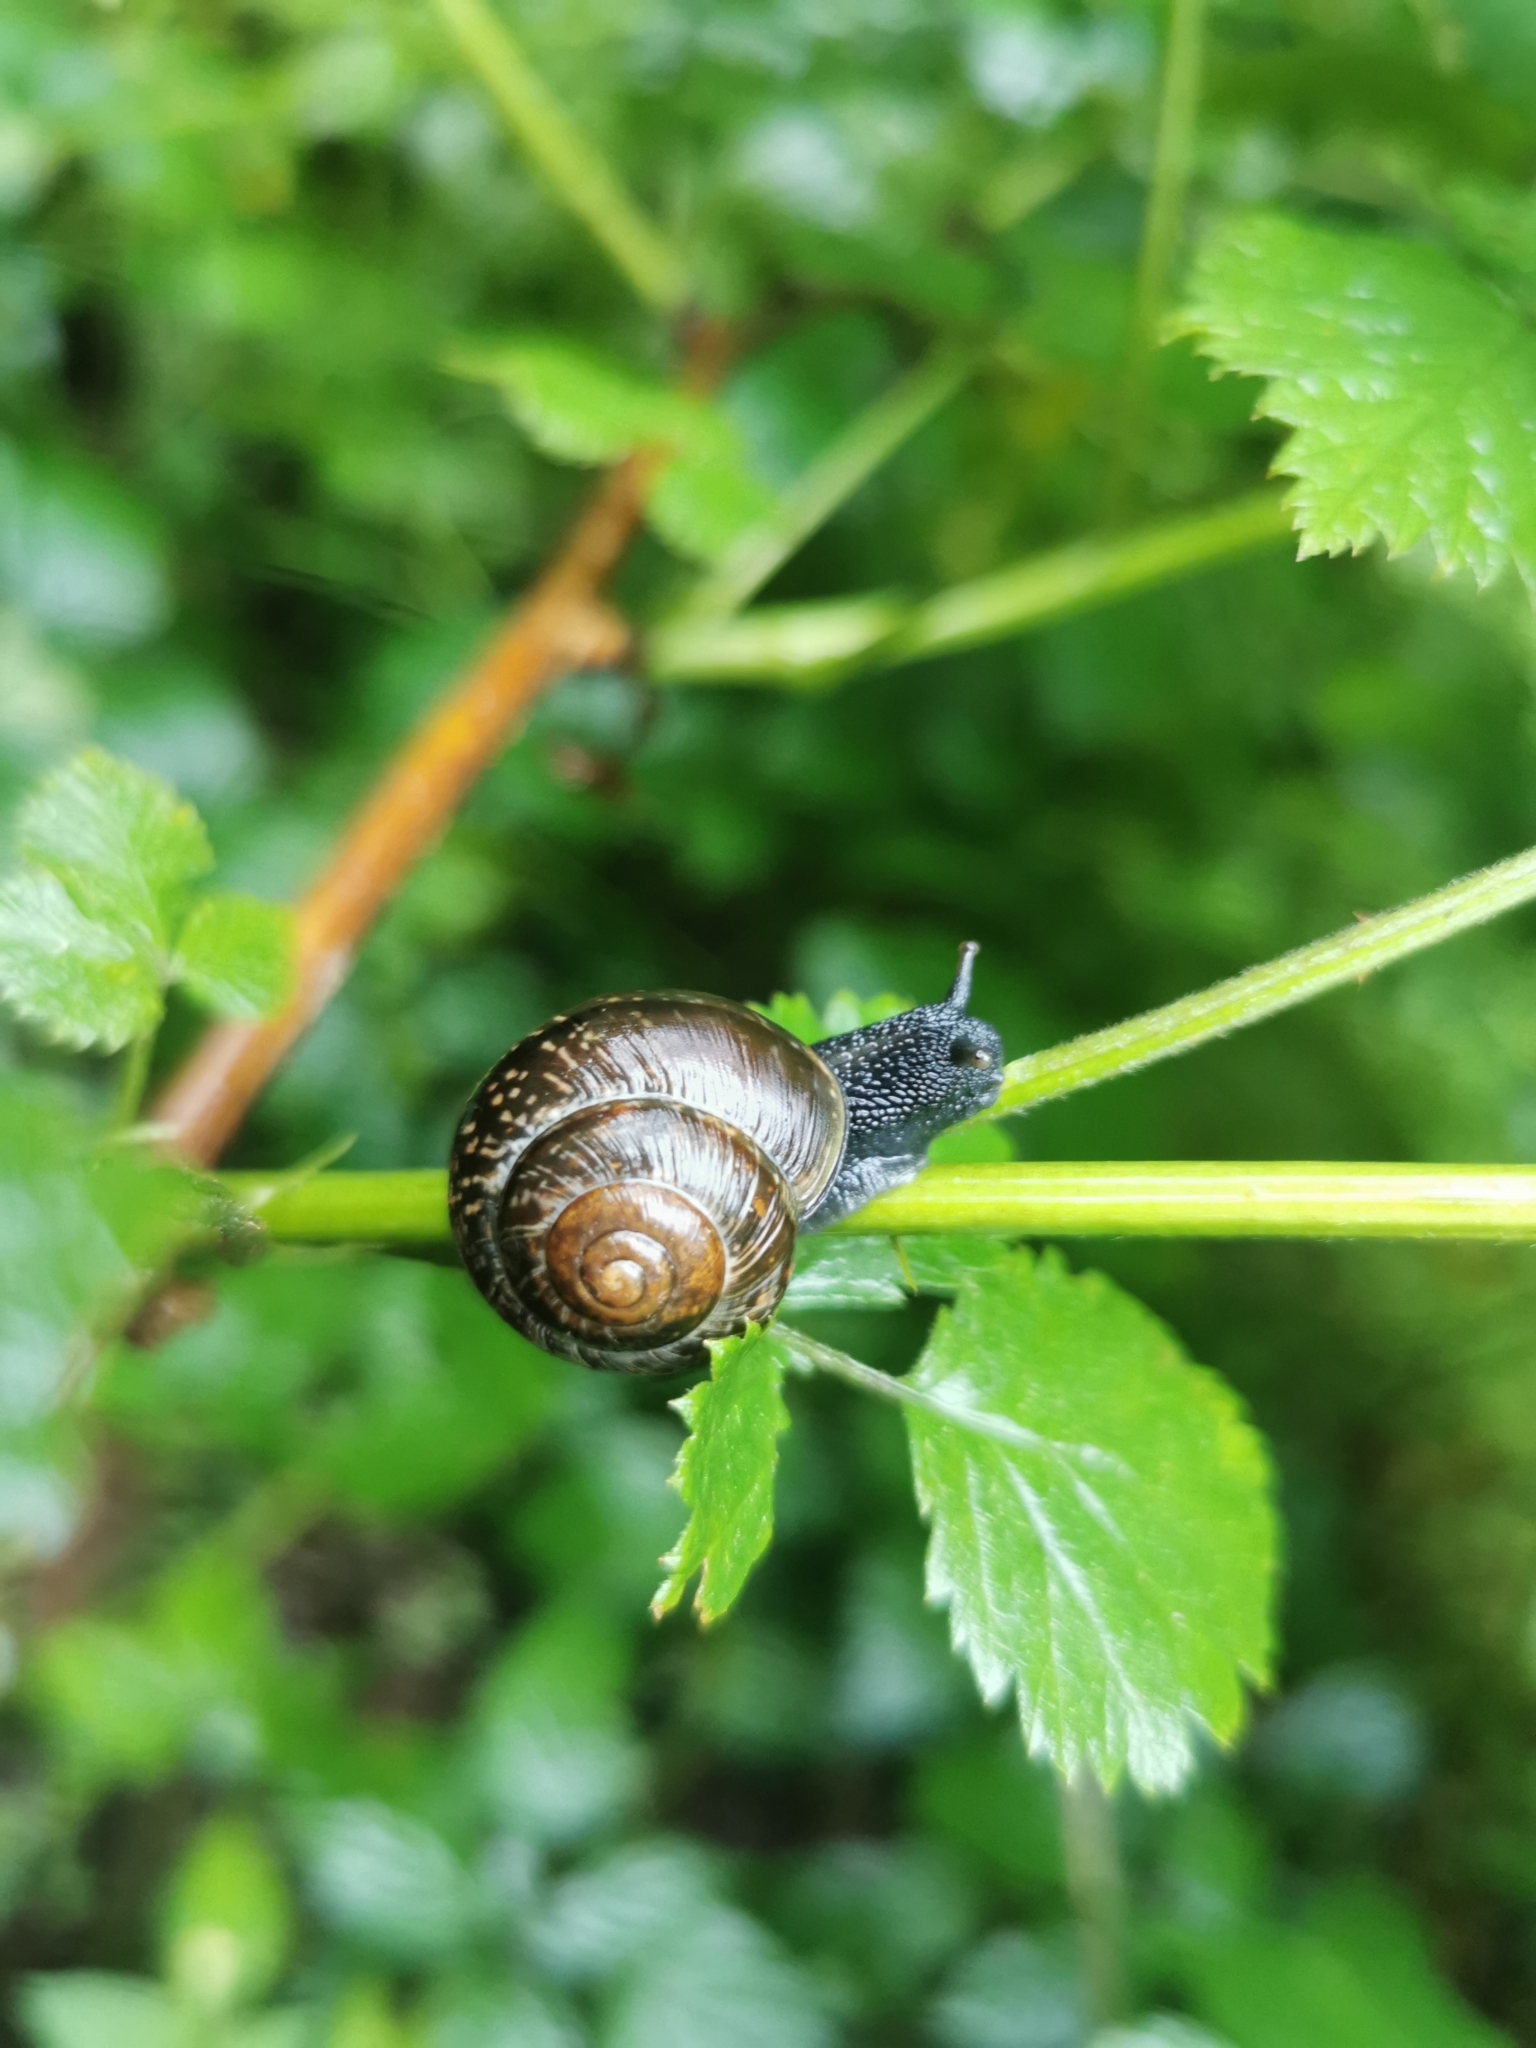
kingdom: Animalia
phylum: Mollusca
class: Gastropoda
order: Stylommatophora
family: Helicidae
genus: Arianta
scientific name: Arianta arbustorum
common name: Copse snail
